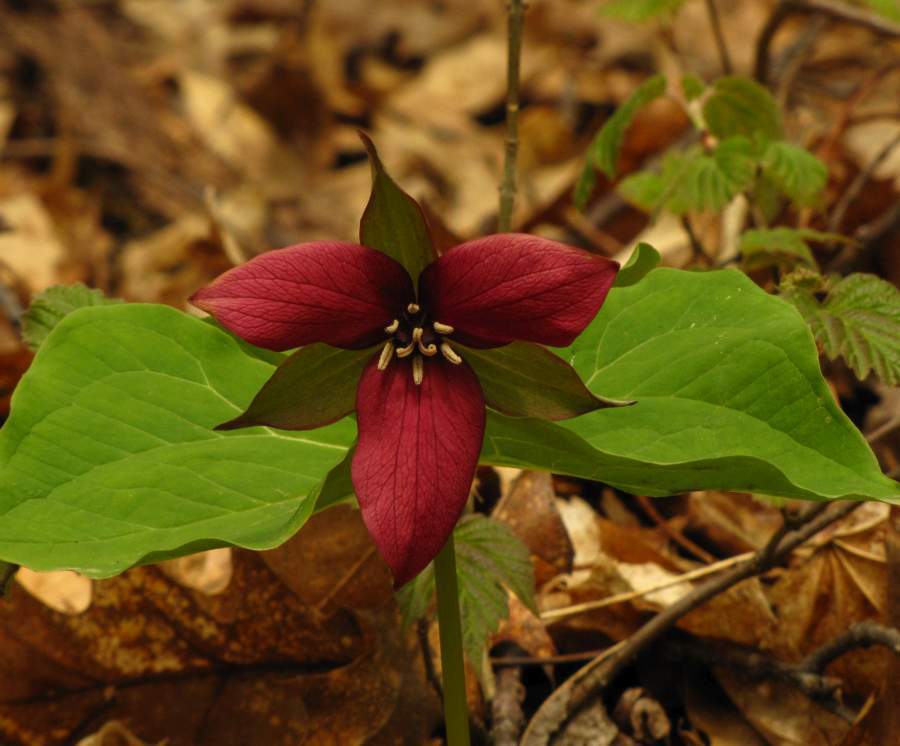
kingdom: Plantae
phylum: Tracheophyta
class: Liliopsida
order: Liliales
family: Melanthiaceae
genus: Trillium
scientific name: Trillium erectum
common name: Purple trillium
